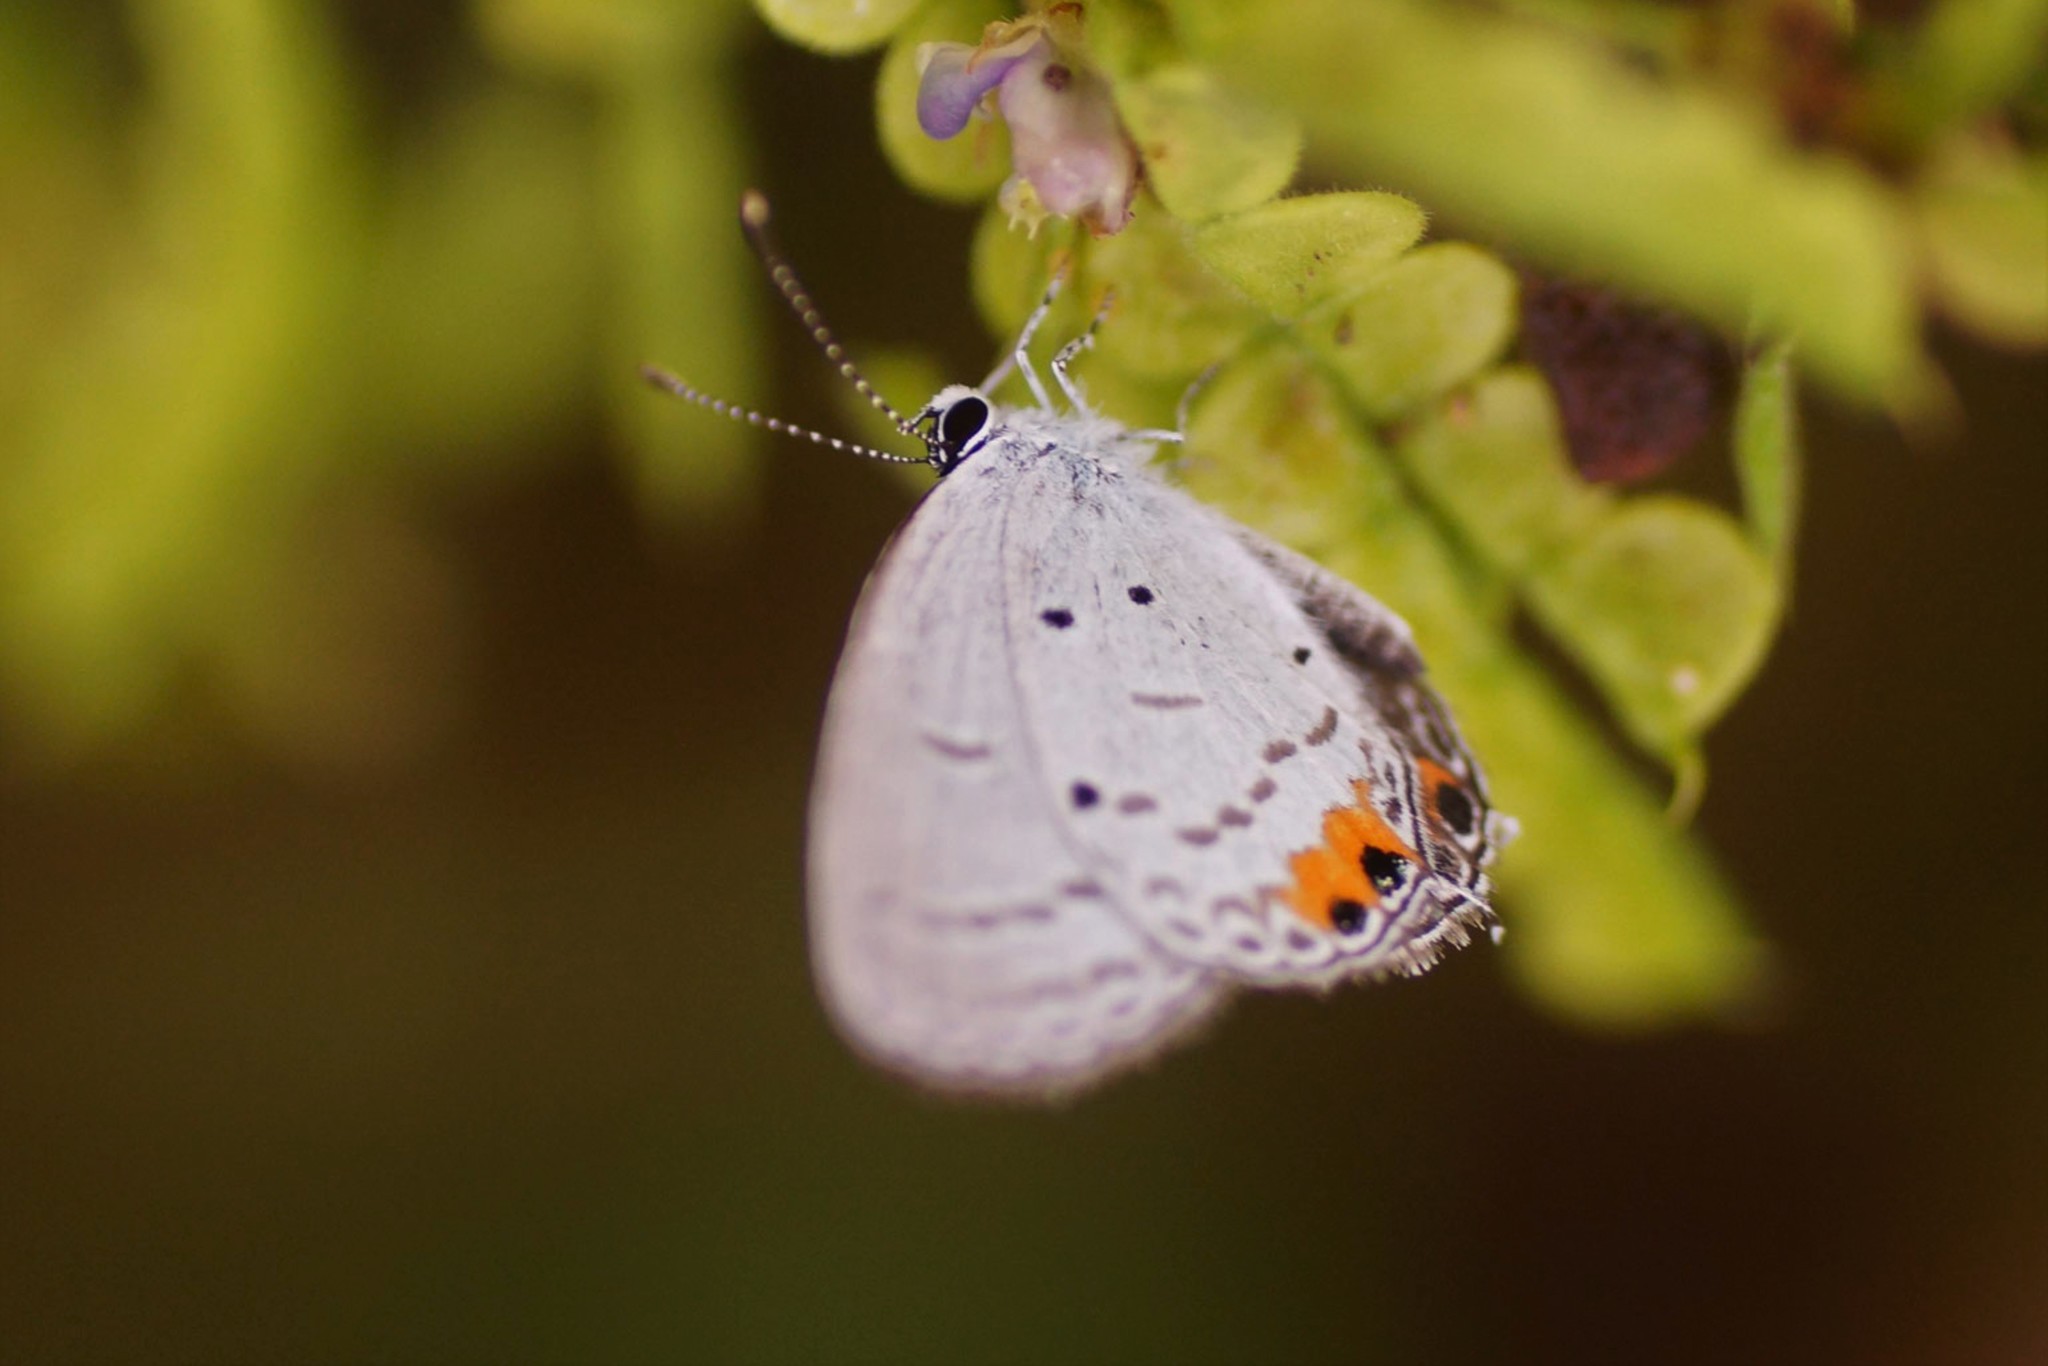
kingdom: Animalia
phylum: Arthropoda
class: Insecta
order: Lepidoptera
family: Lycaenidae
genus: Everes
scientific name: Everes lacturnus
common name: Orange-tipped pea-blue
